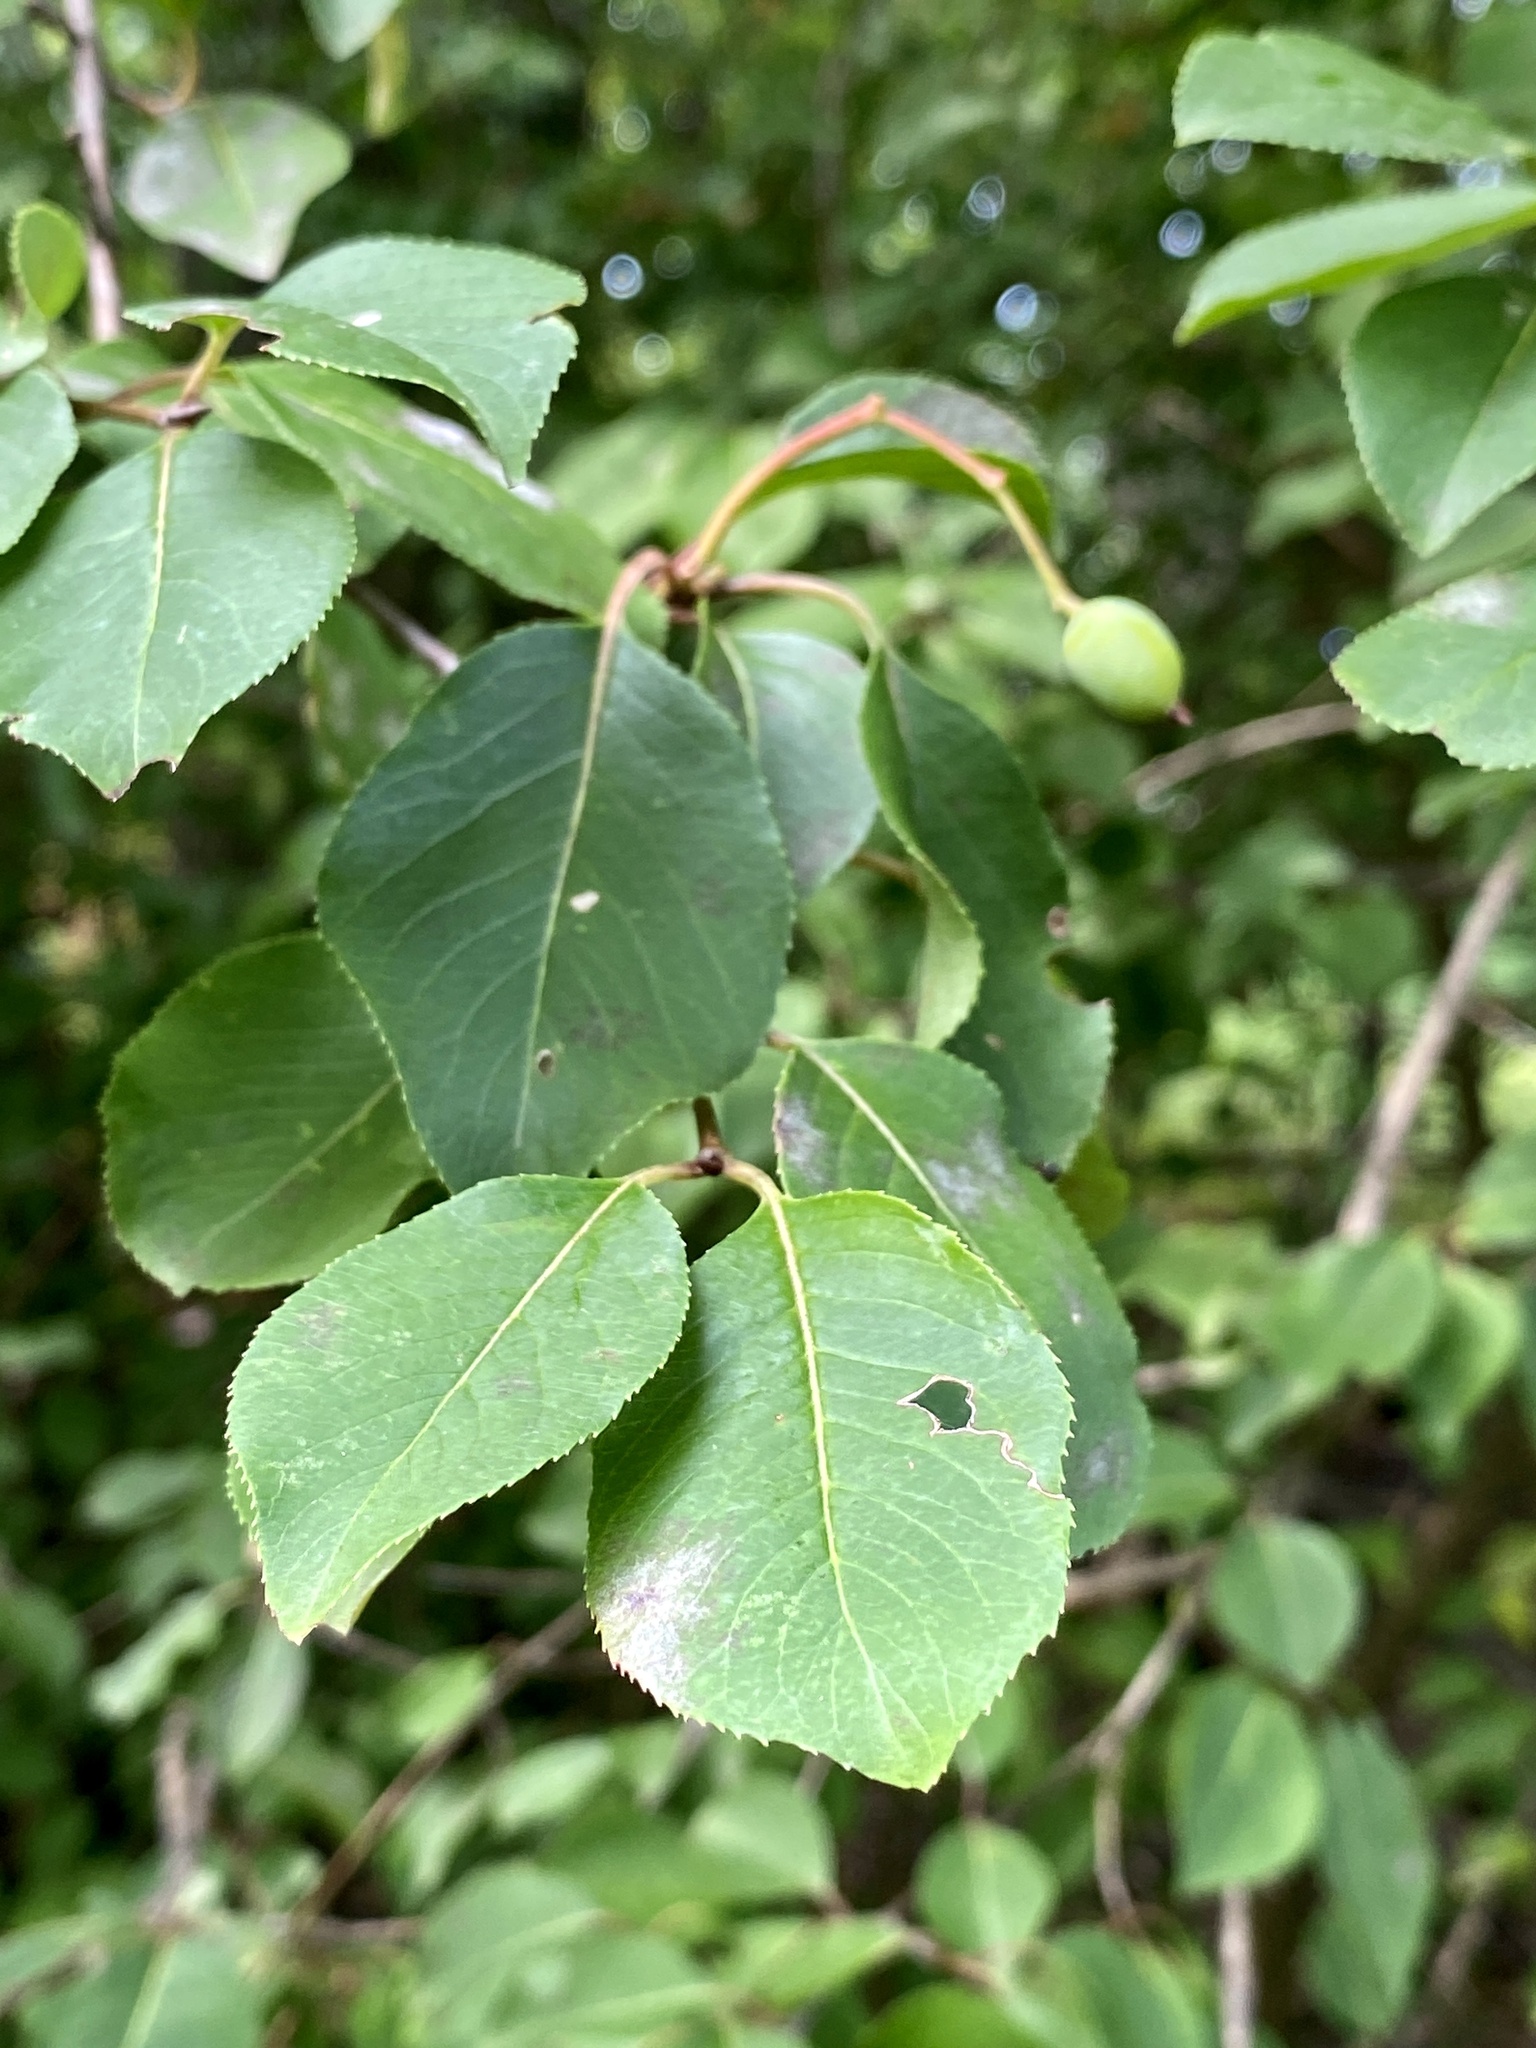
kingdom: Plantae
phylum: Tracheophyta
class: Magnoliopsida
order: Dipsacales
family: Viburnaceae
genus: Viburnum
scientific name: Viburnum prunifolium
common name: Black haw
